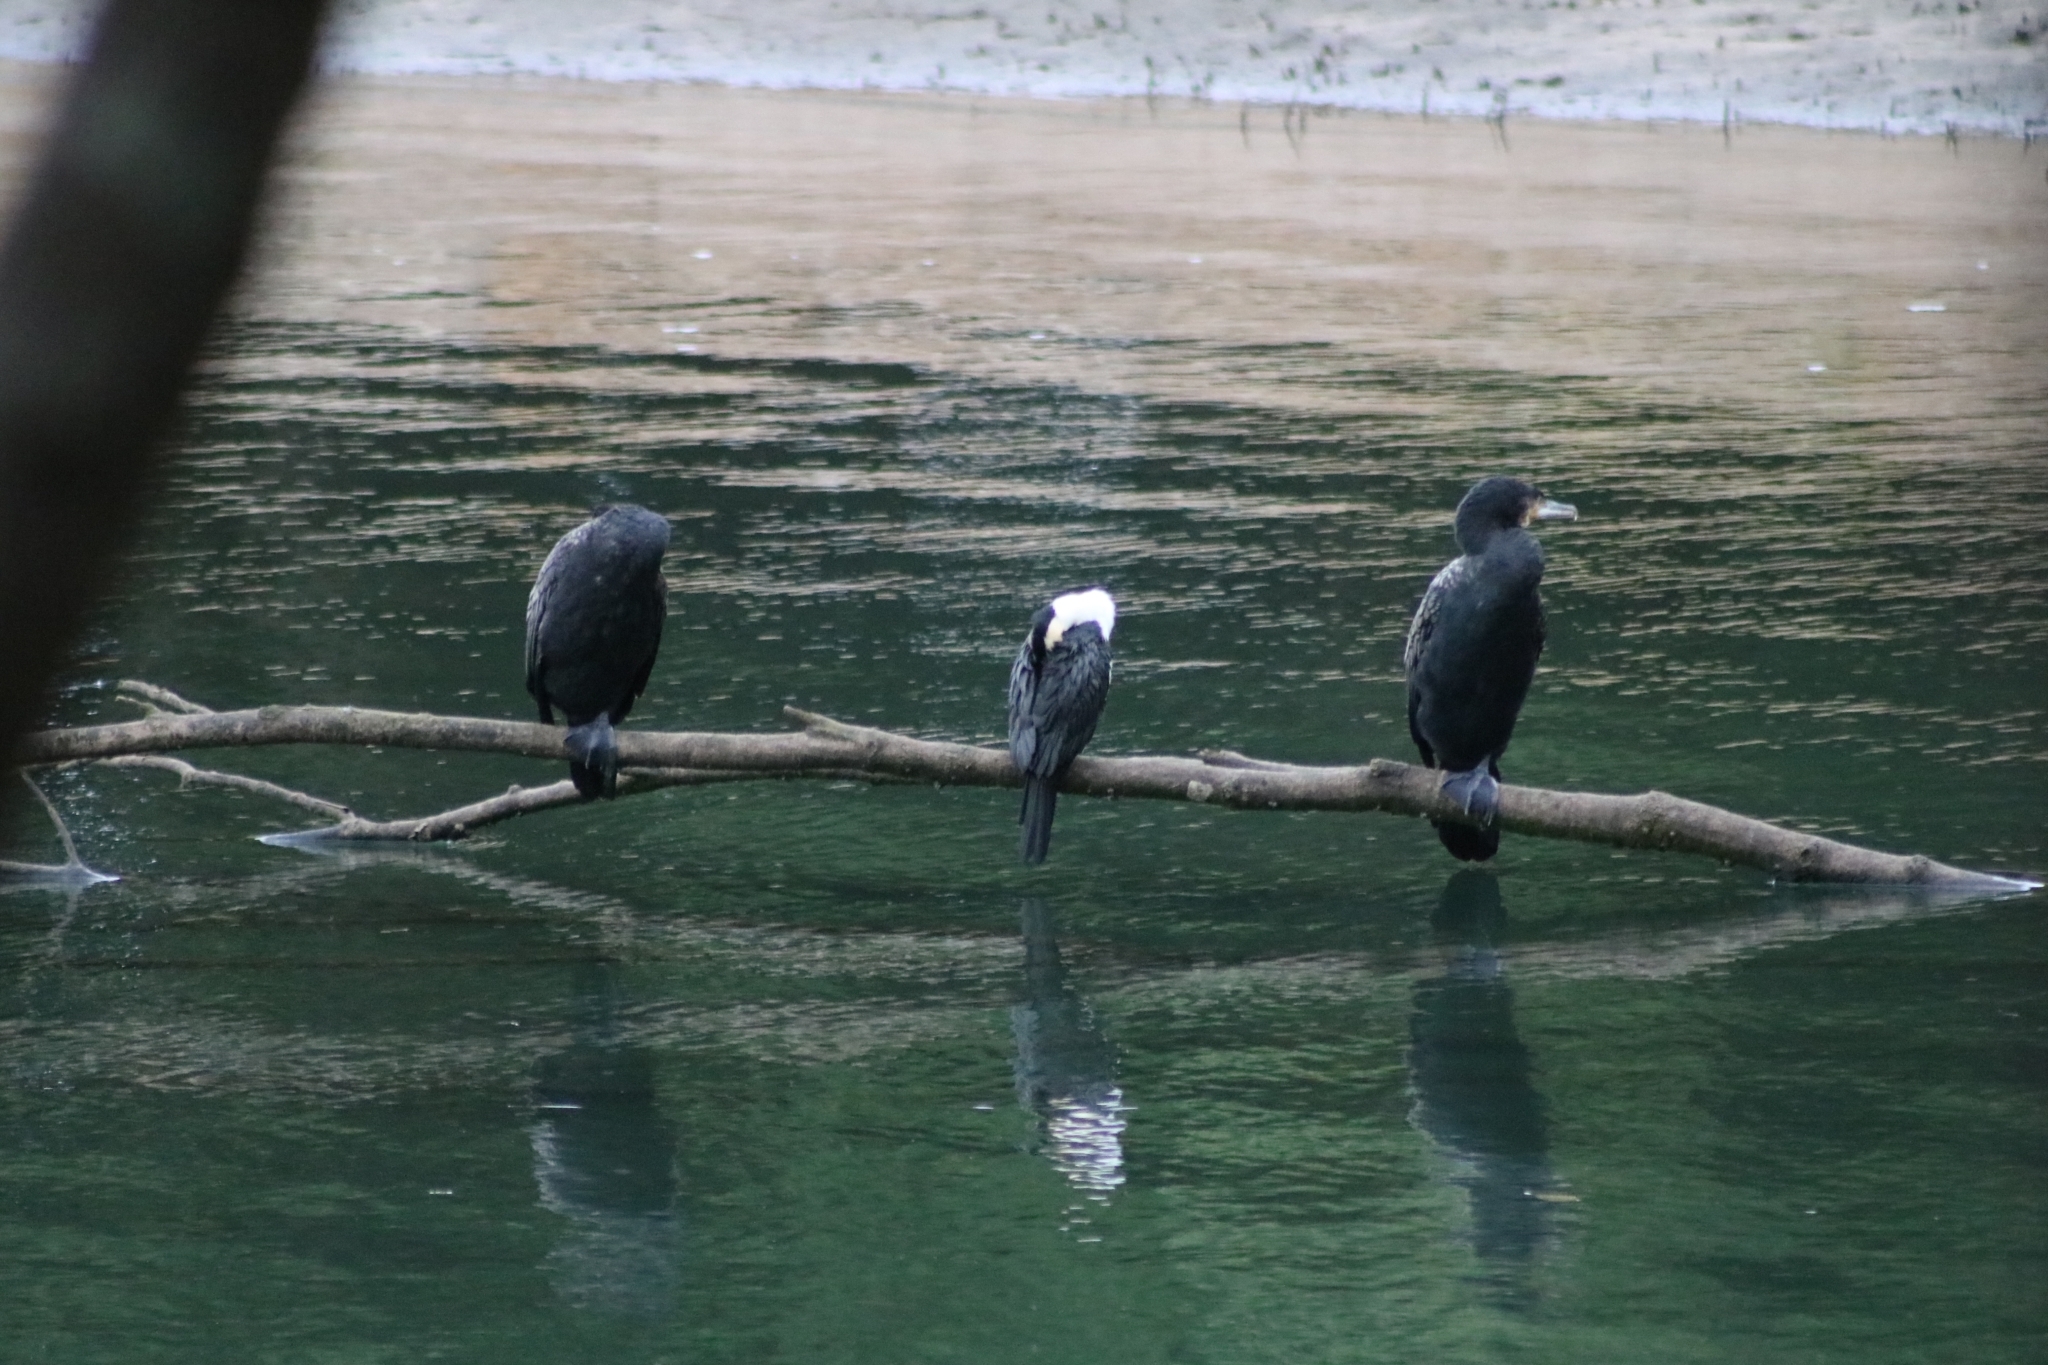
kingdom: Animalia
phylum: Chordata
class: Aves
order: Suliformes
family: Phalacrocoracidae
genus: Phalacrocorax
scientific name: Phalacrocorax carbo
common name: Great cormorant
